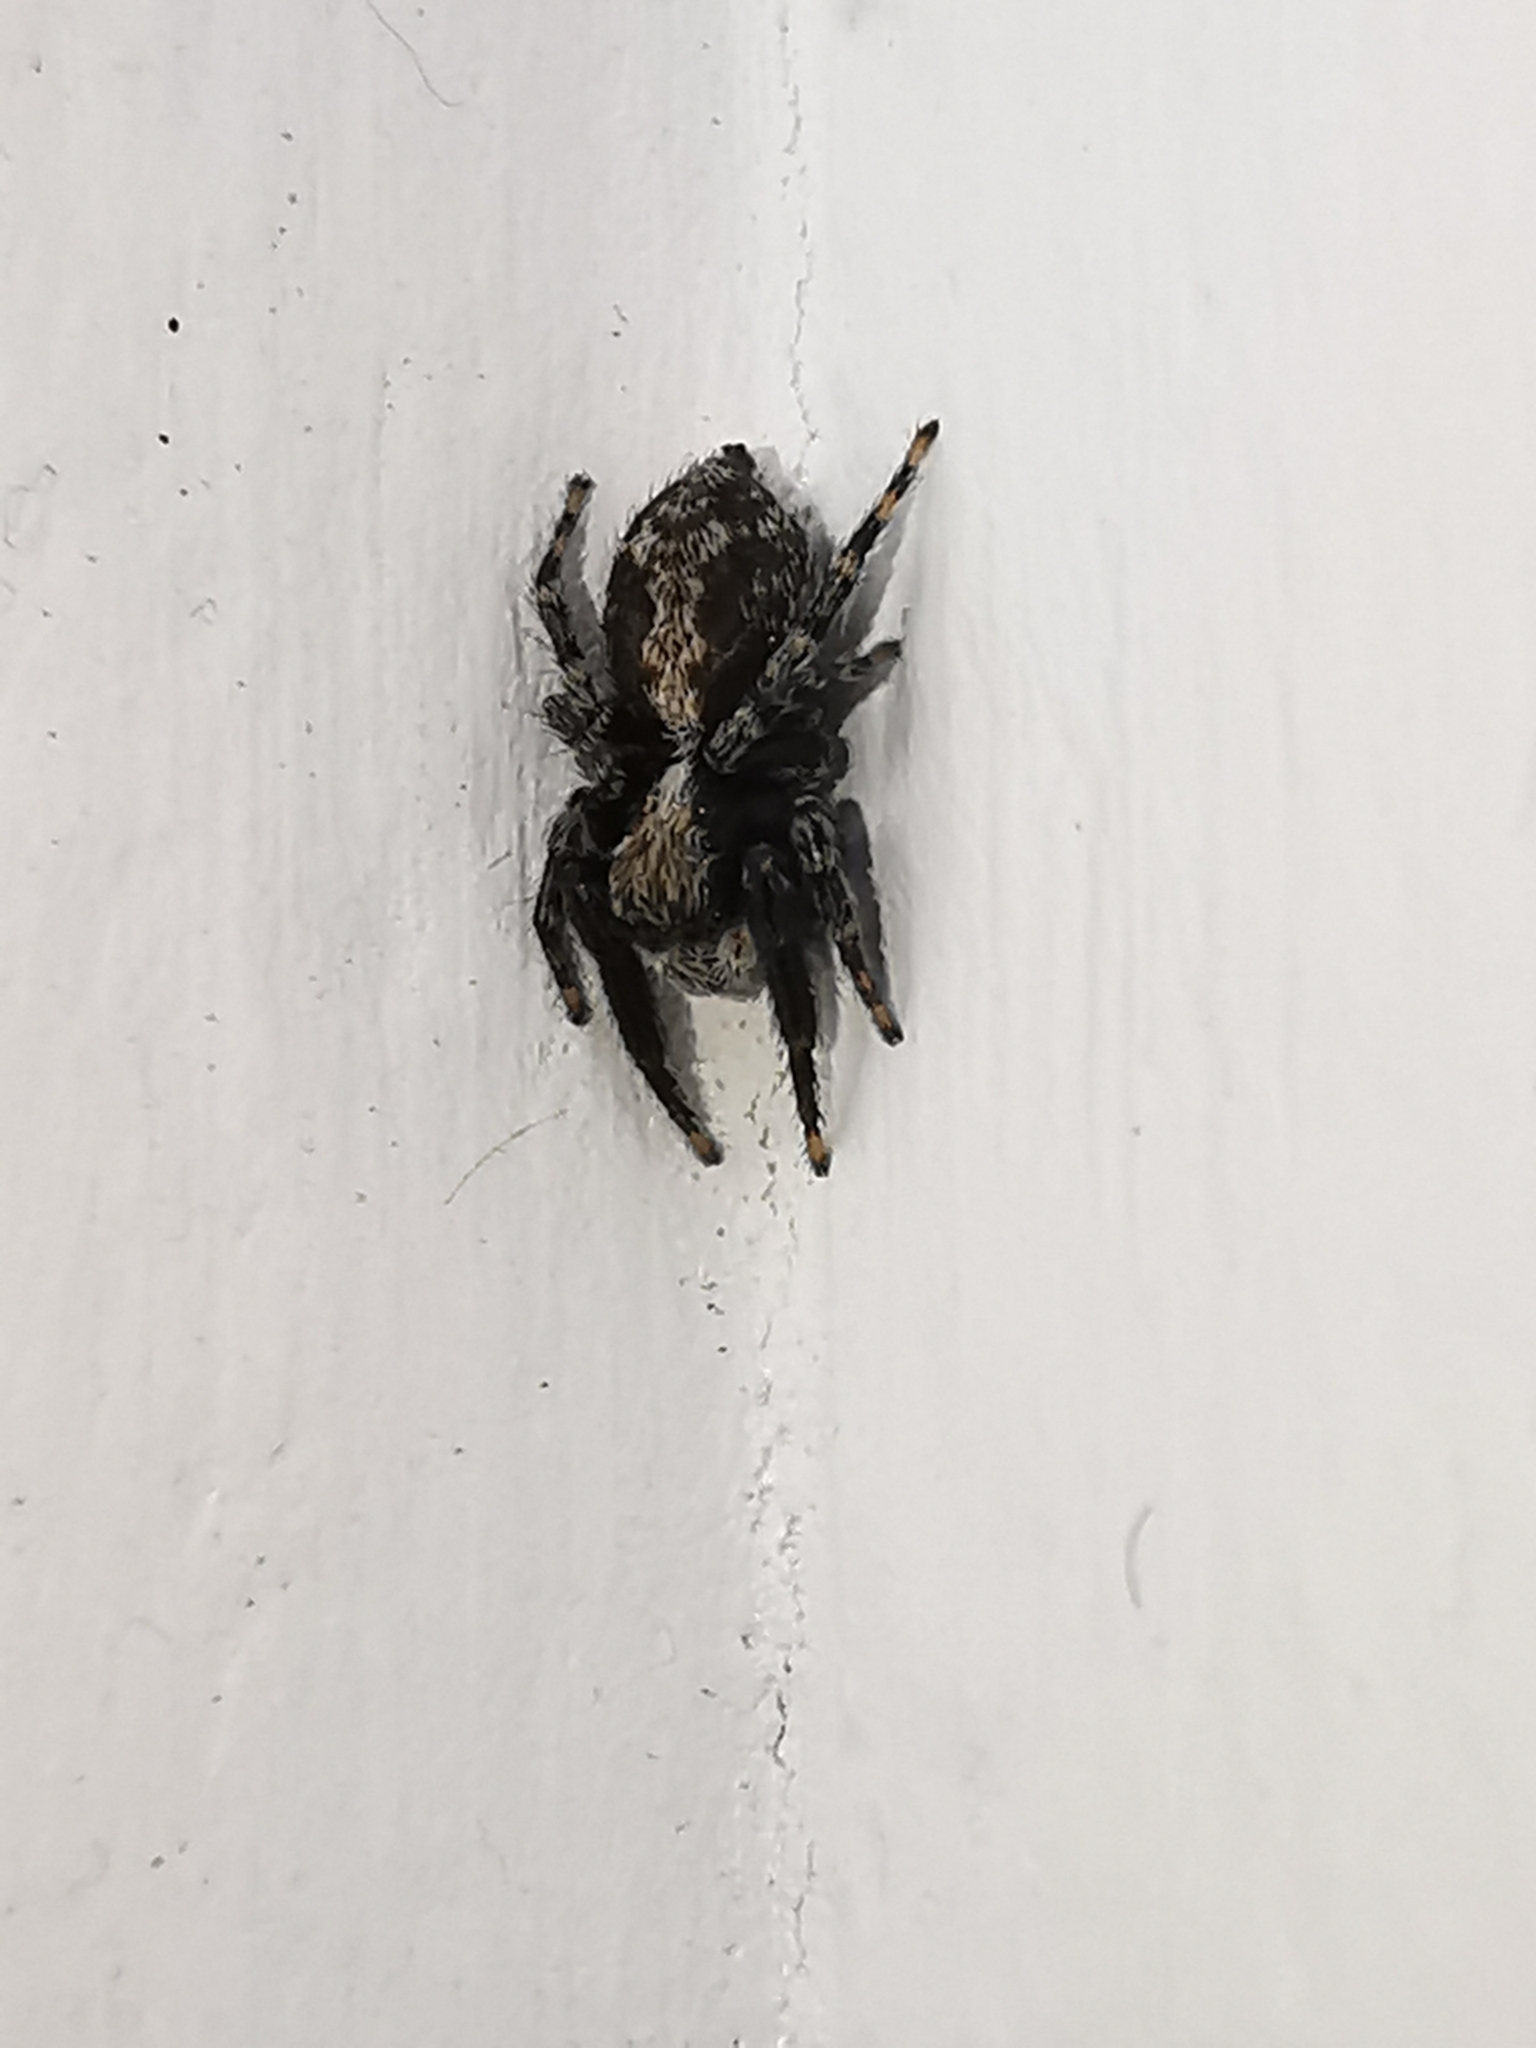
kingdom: Animalia
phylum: Arthropoda
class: Arachnida
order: Araneae
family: Salticidae
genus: Pseudeuophrys
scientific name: Pseudeuophrys lanigera
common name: Jumping spider
